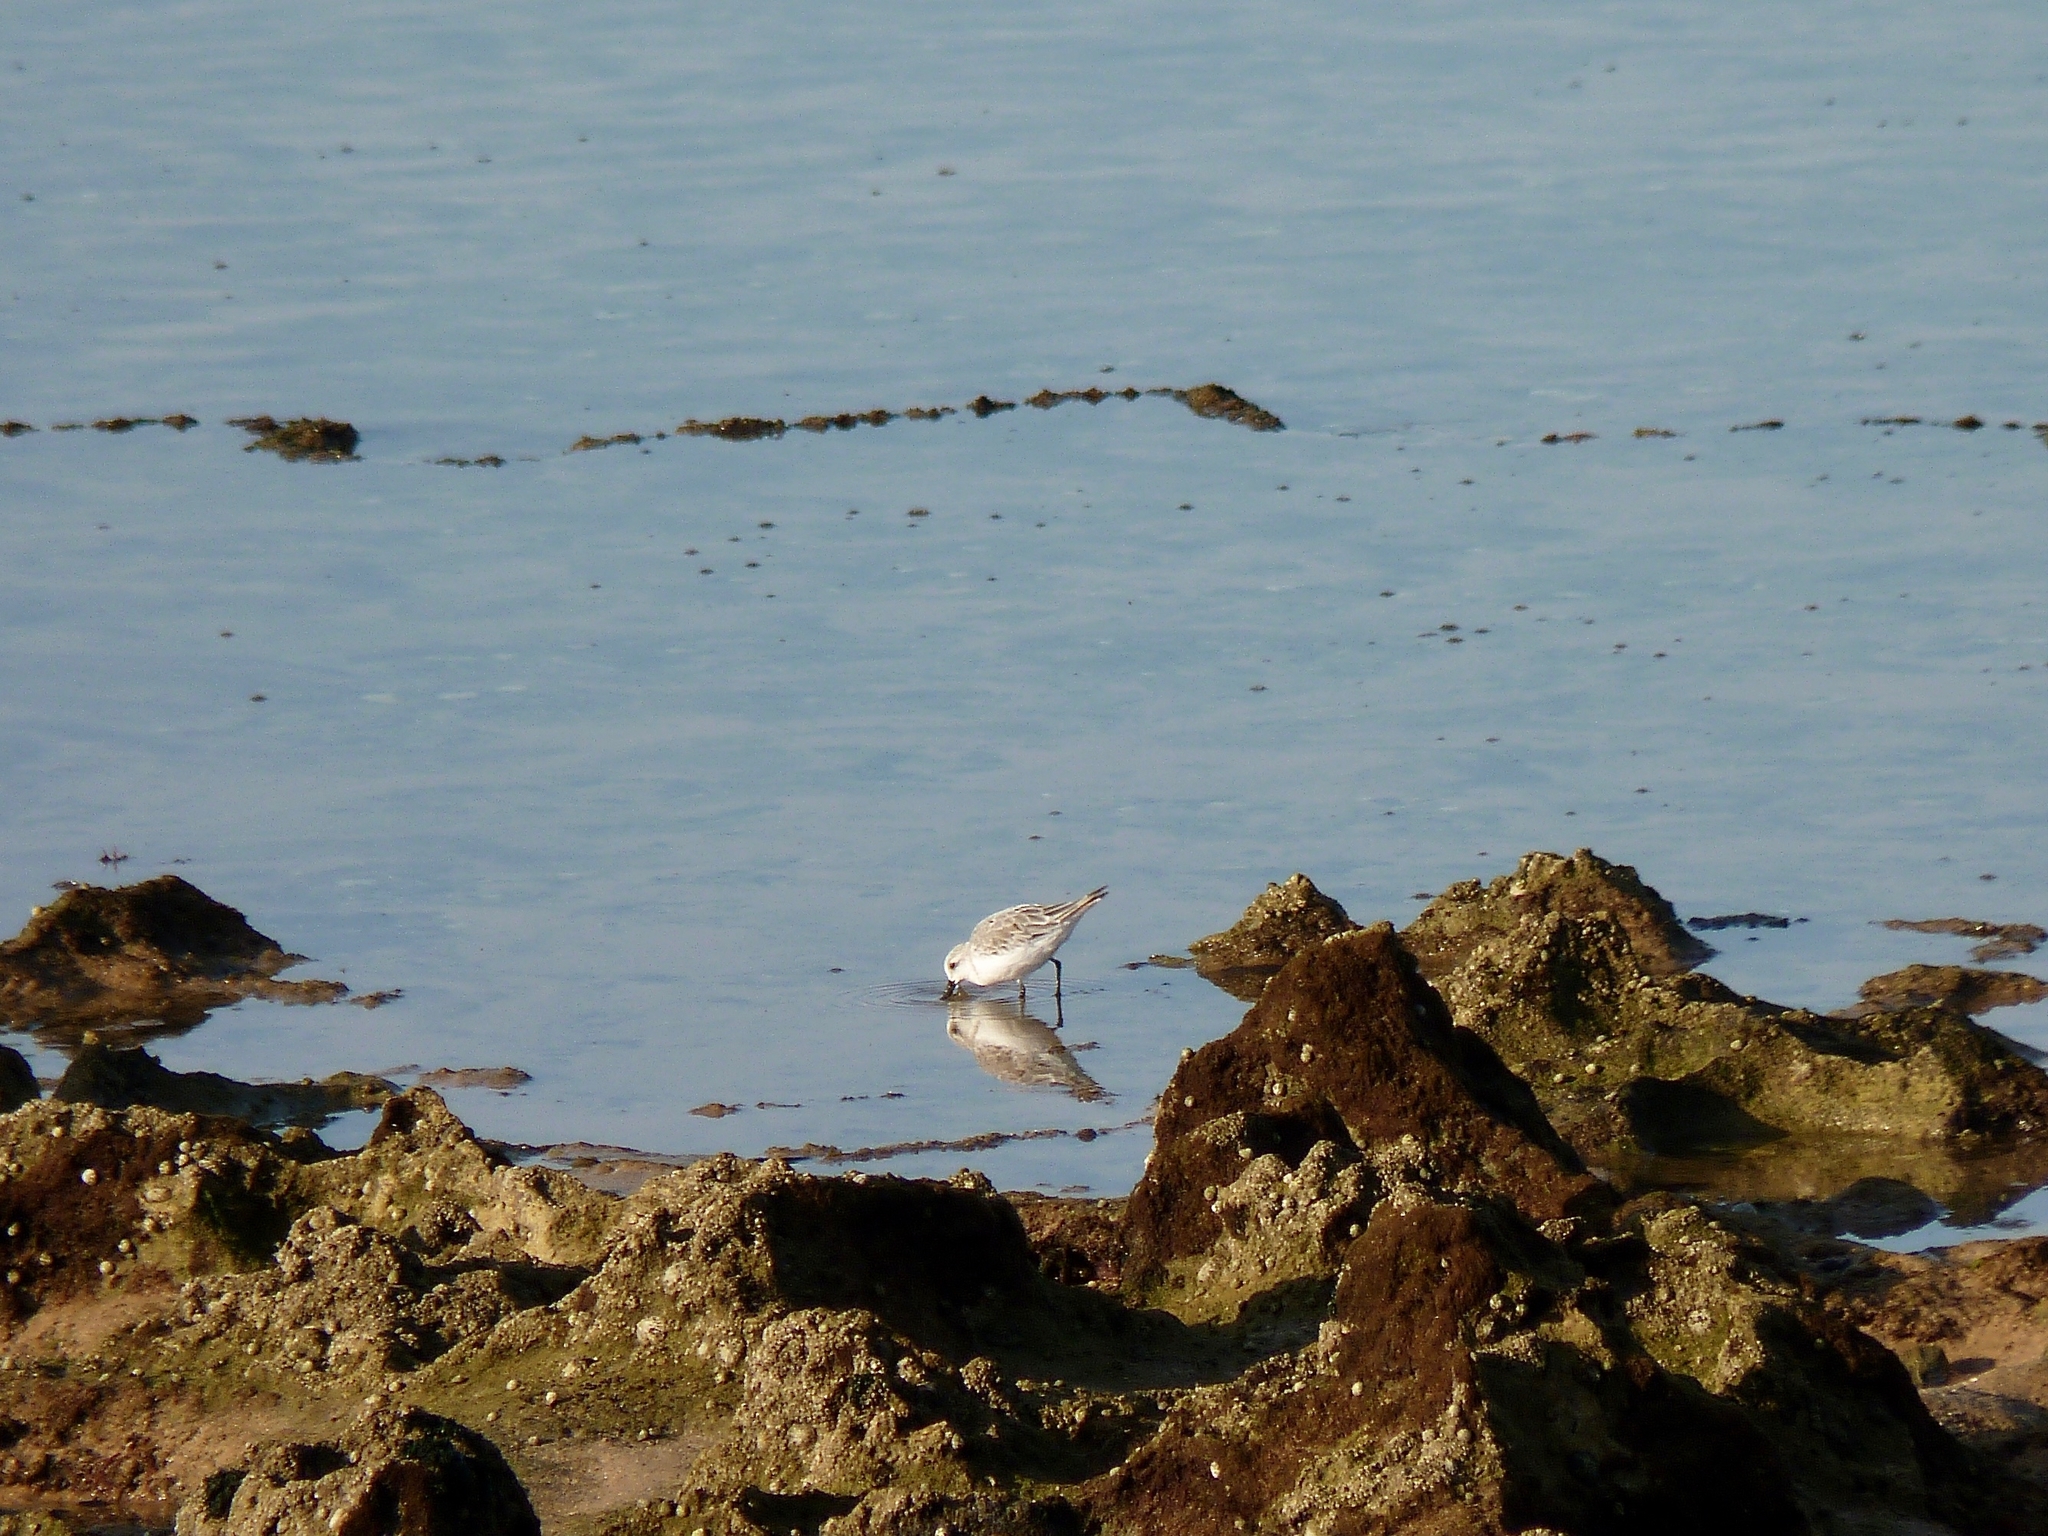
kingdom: Animalia
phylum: Chordata
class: Aves
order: Charadriiformes
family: Scolopacidae
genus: Calidris
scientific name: Calidris alba
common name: Sanderling
